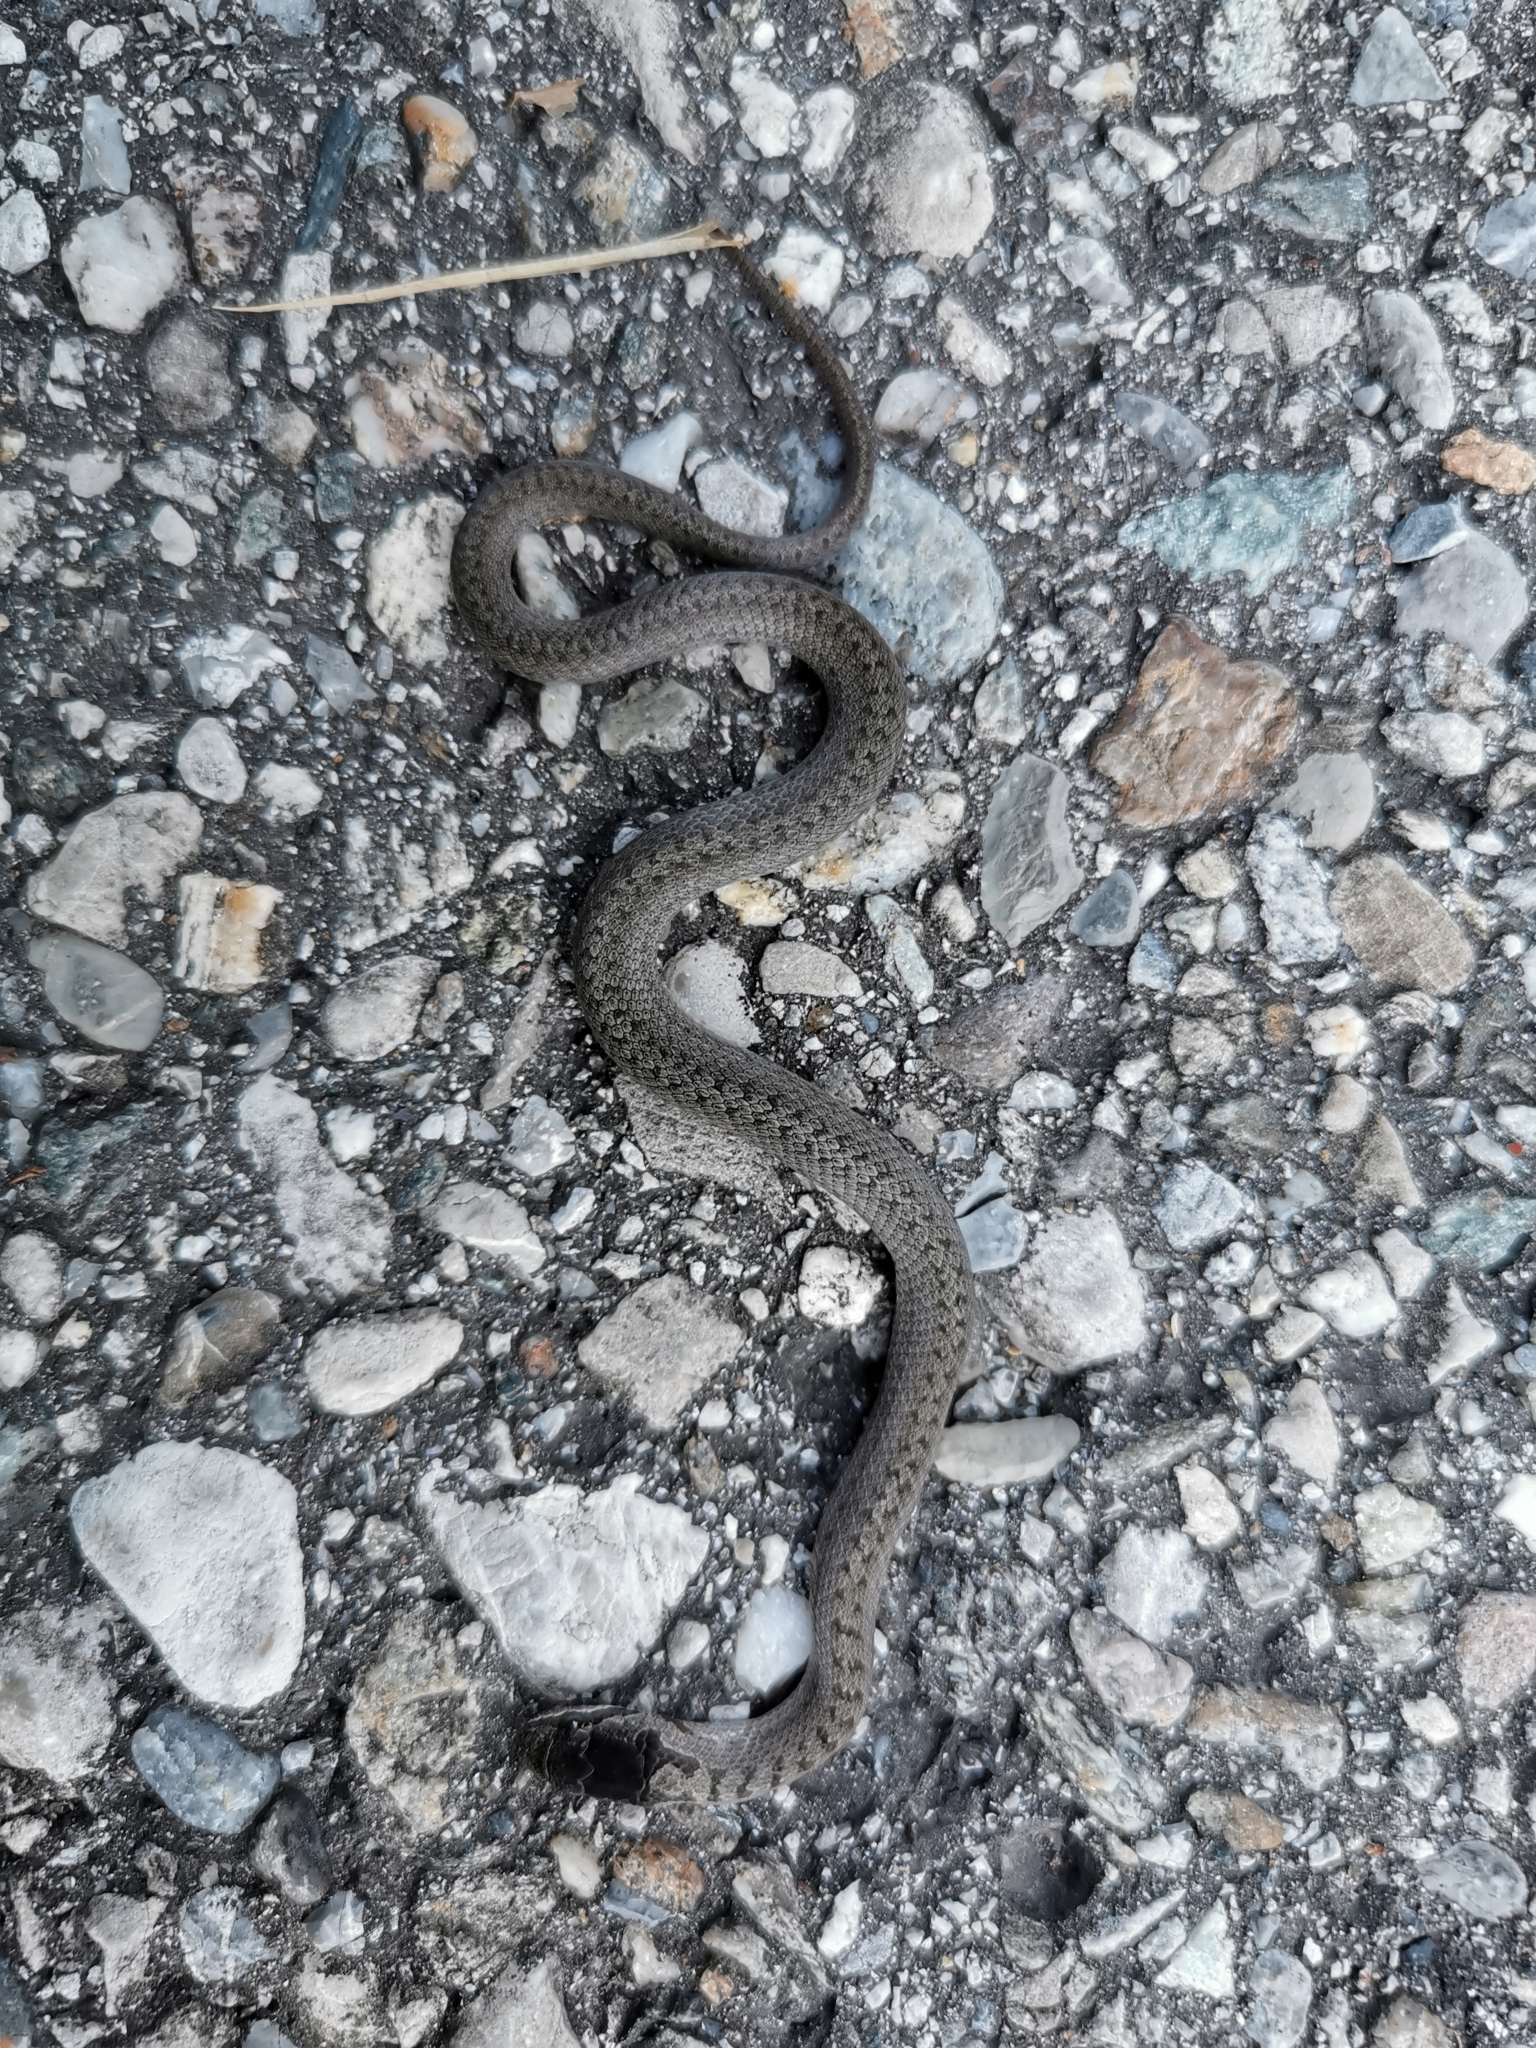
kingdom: Animalia
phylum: Chordata
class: Squamata
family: Colubridae
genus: Coronella
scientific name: Coronella austriaca
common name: Smooth snake
